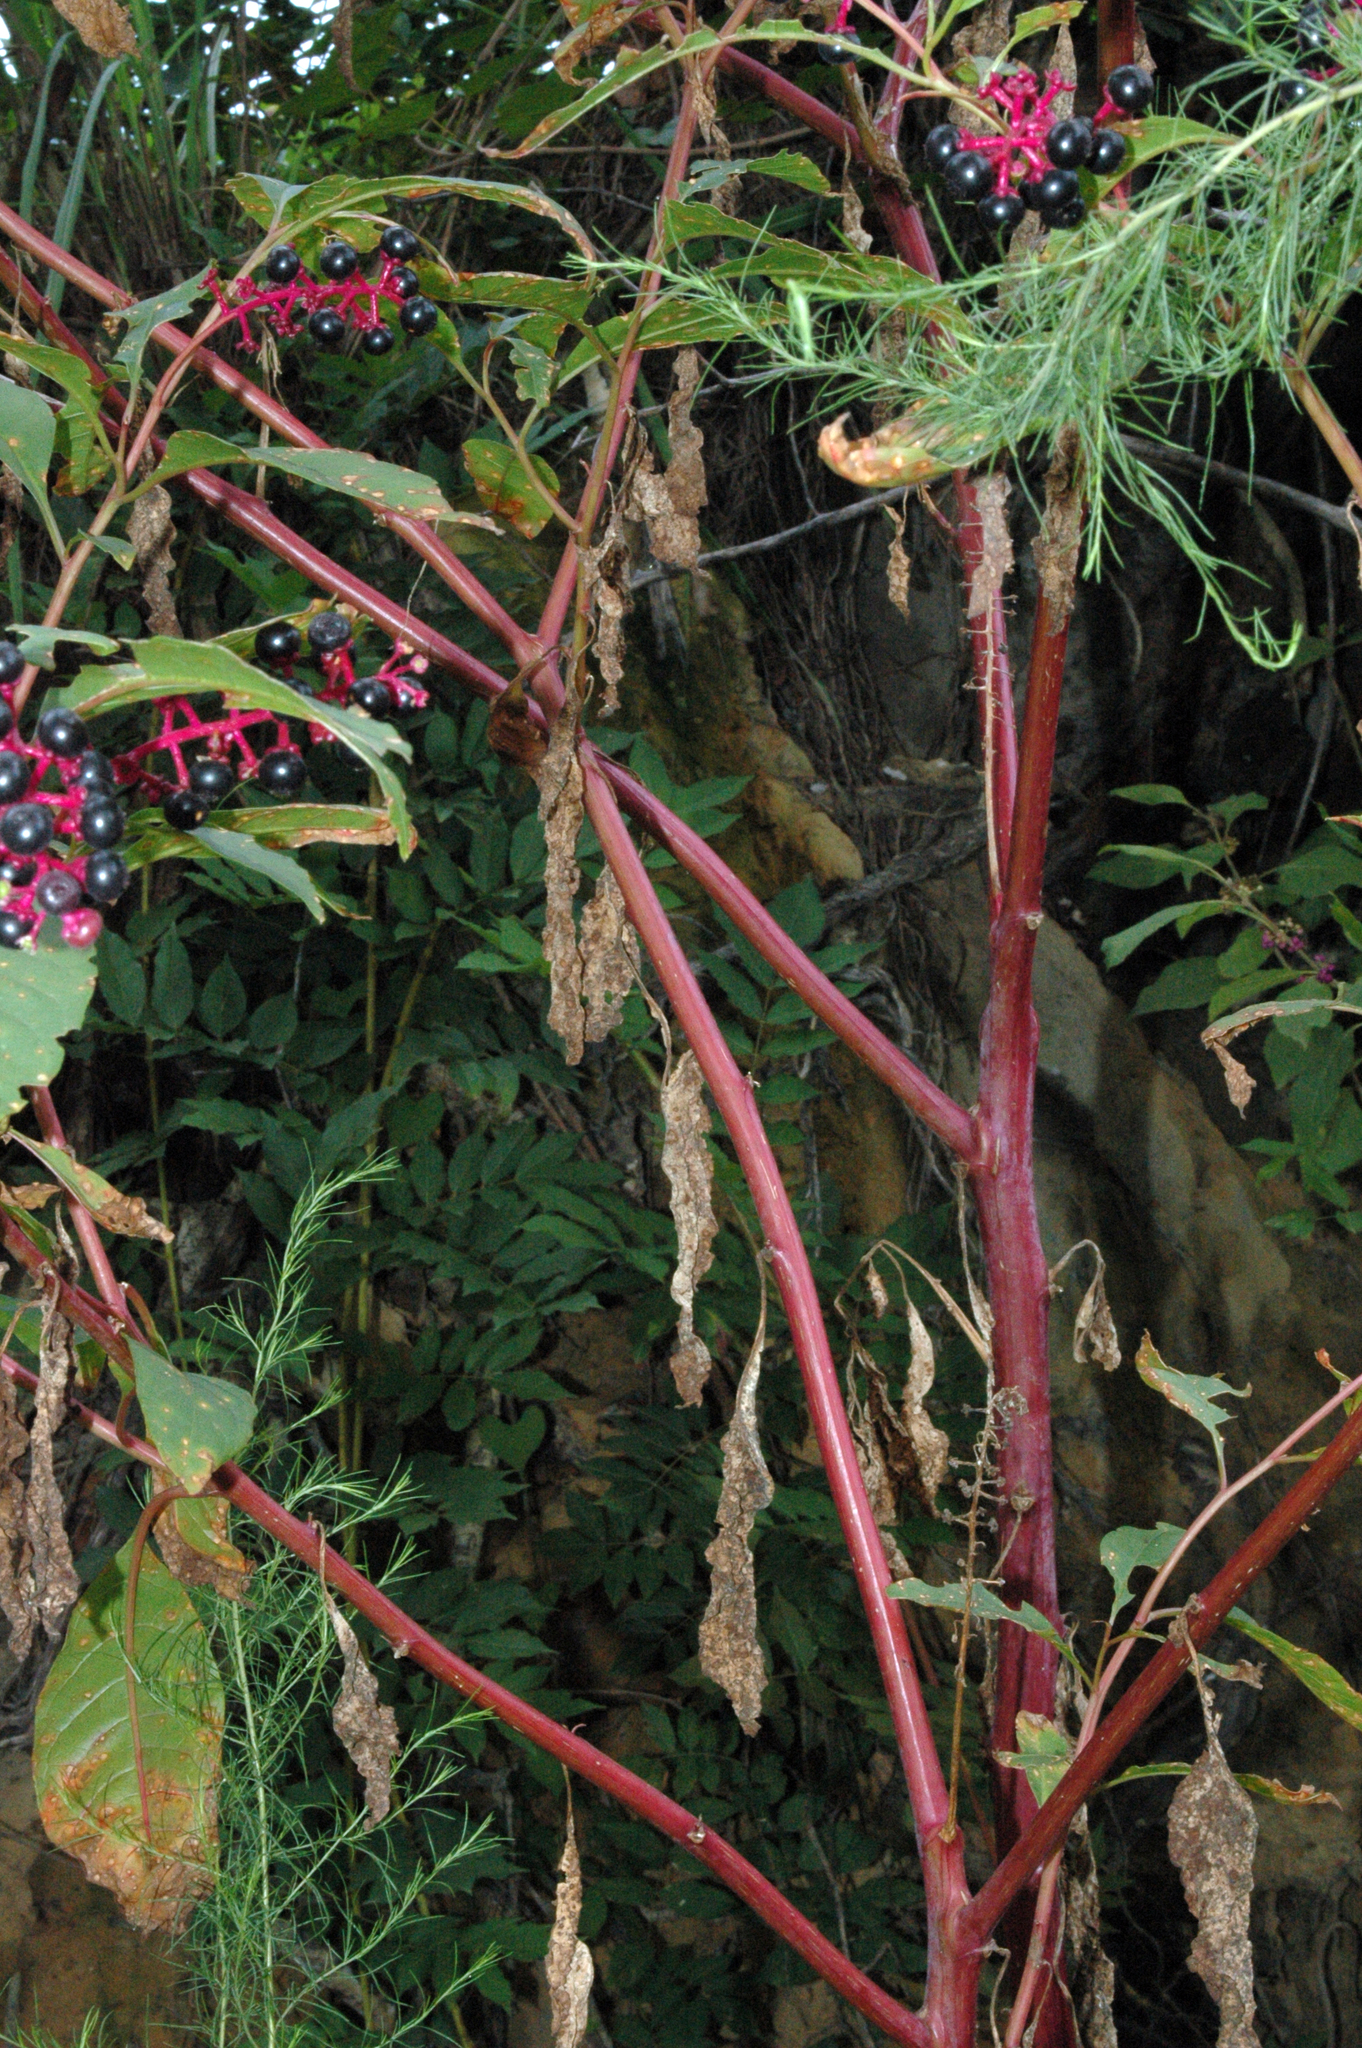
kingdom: Plantae
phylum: Tracheophyta
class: Magnoliopsida
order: Caryophyllales
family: Phytolaccaceae
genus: Phytolacca
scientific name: Phytolacca americana
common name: American pokeweed
